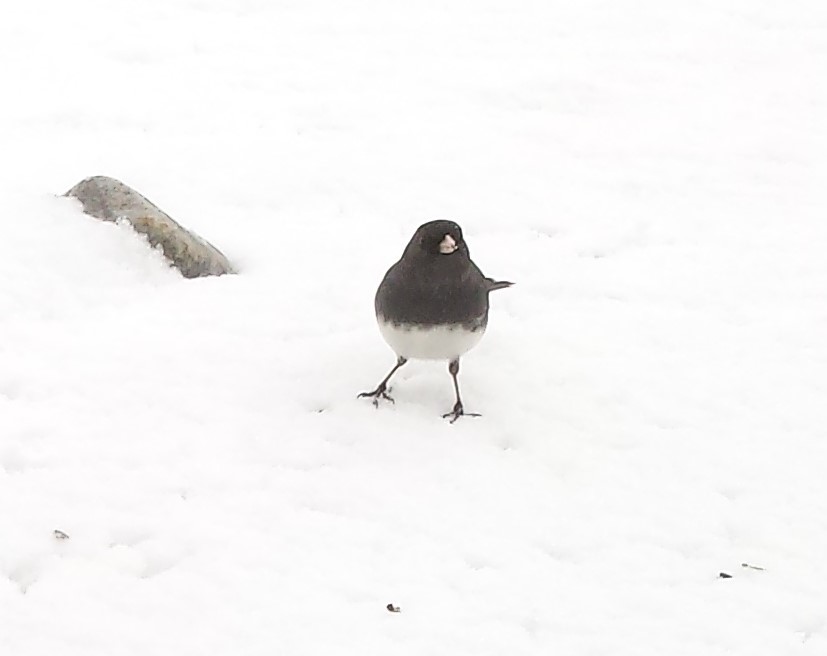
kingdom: Animalia
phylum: Chordata
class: Aves
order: Passeriformes
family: Passerellidae
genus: Junco
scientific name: Junco hyemalis
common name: Dark-eyed junco
